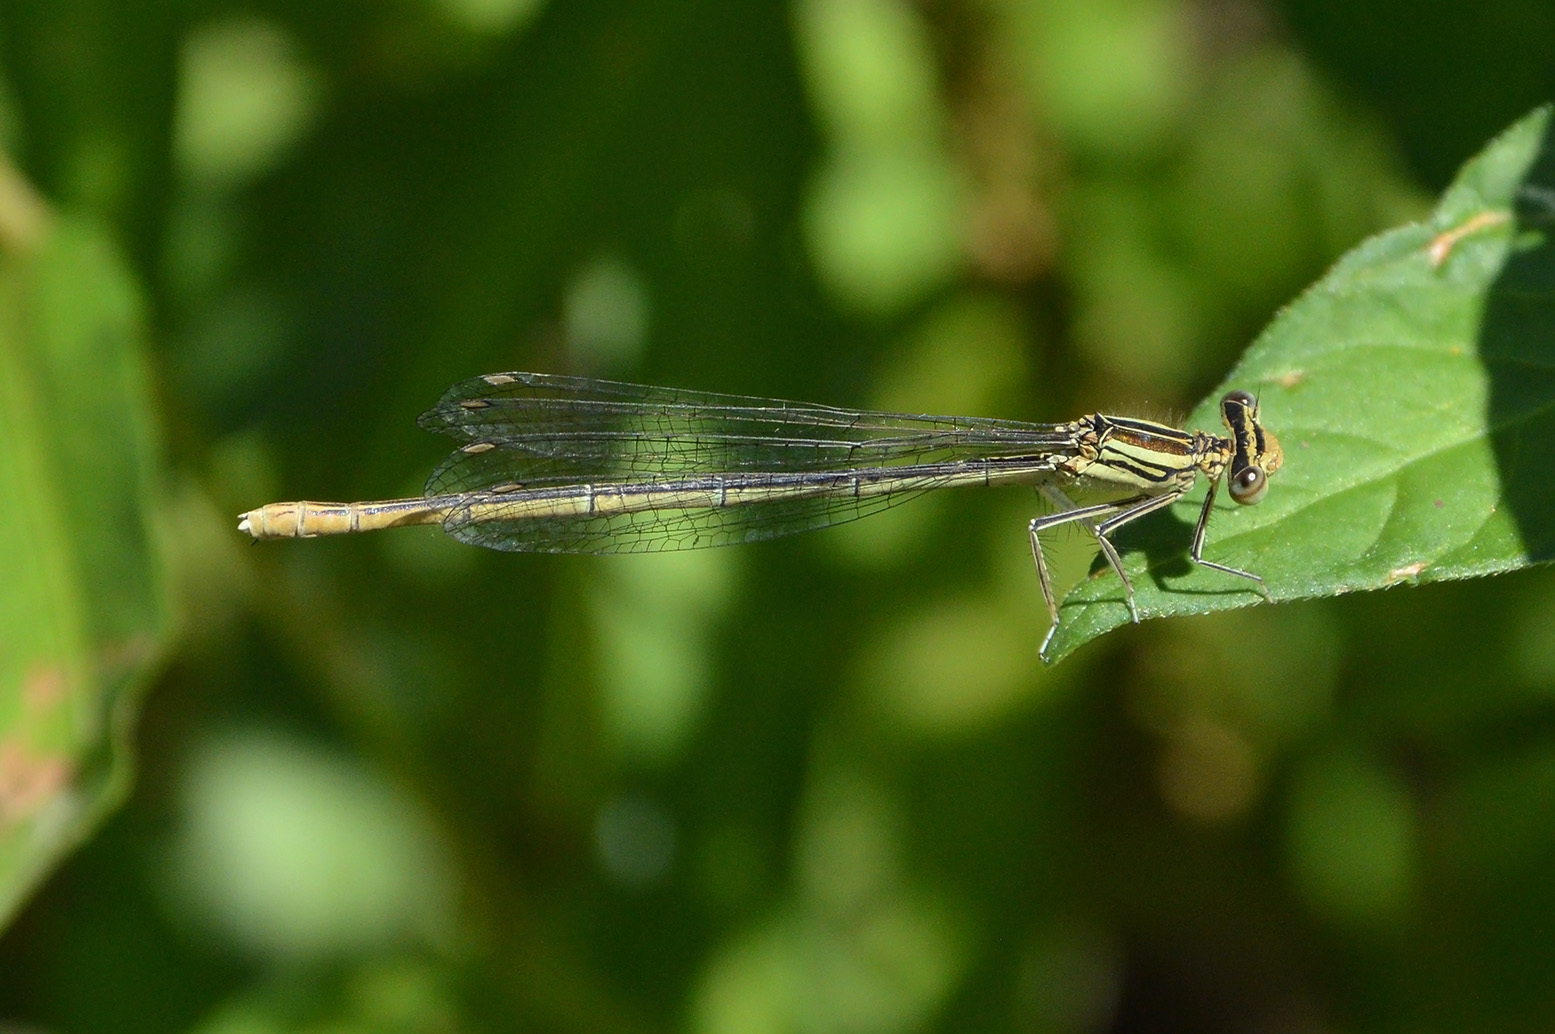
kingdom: Animalia
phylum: Arthropoda
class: Insecta
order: Odonata
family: Platycnemididae
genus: Platycnemis
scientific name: Platycnemis pennipes
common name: White-legged damselfly
